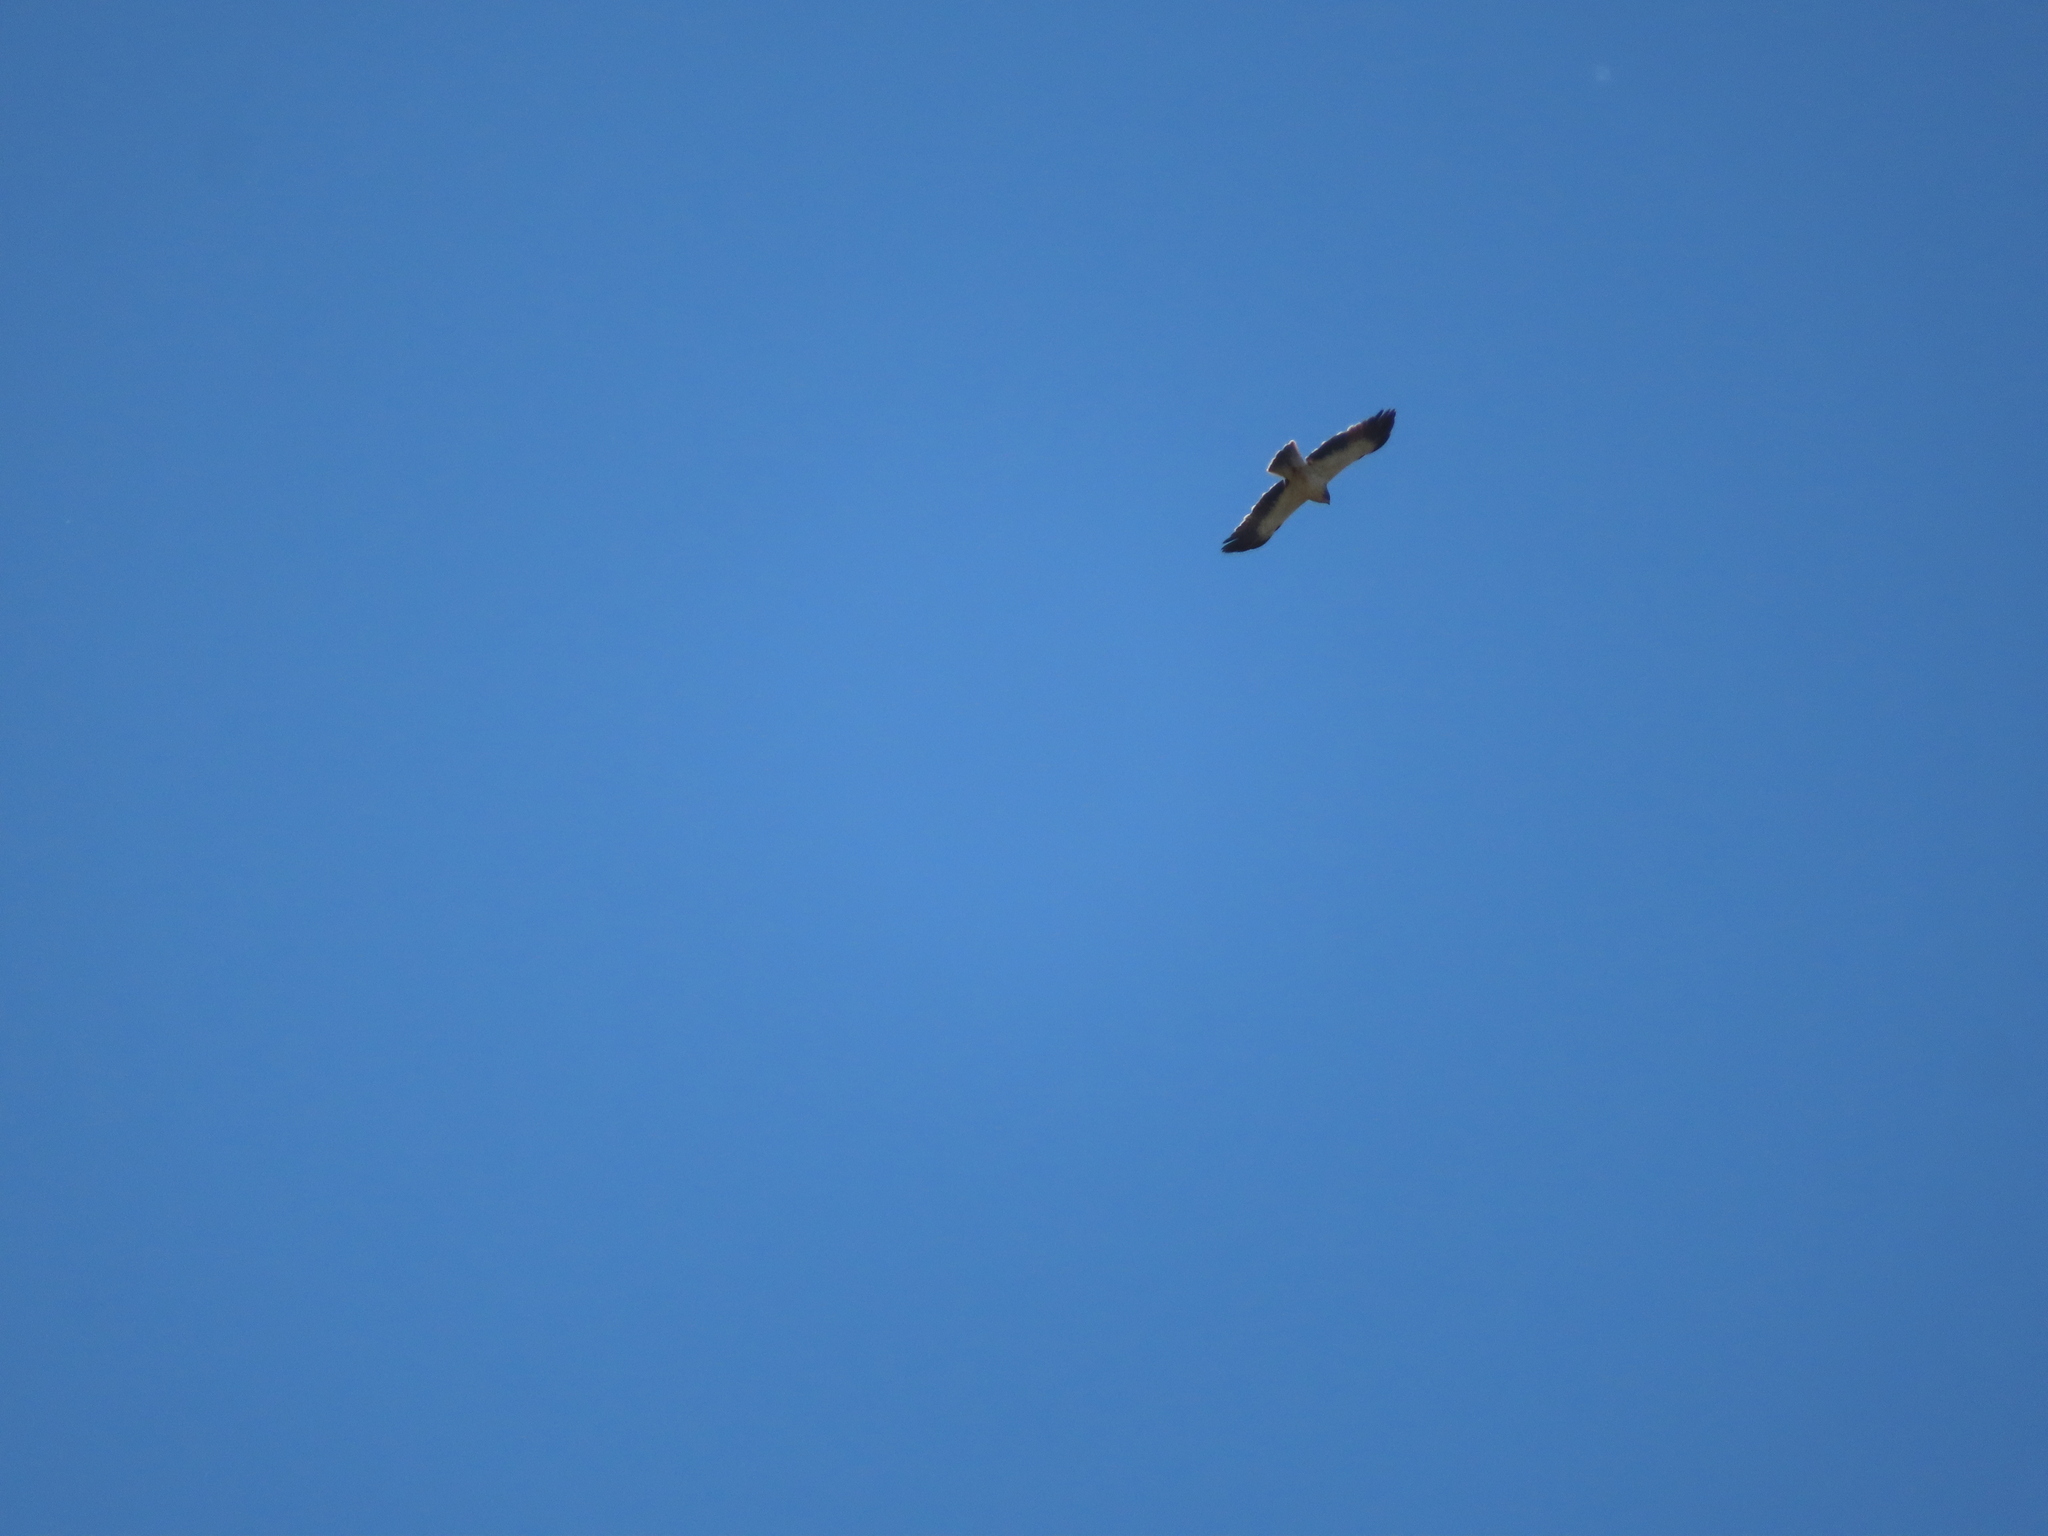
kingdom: Animalia
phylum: Chordata
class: Aves
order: Accipitriformes
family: Accipitridae
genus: Hieraaetus
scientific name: Hieraaetus pennatus
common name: Booted eagle
